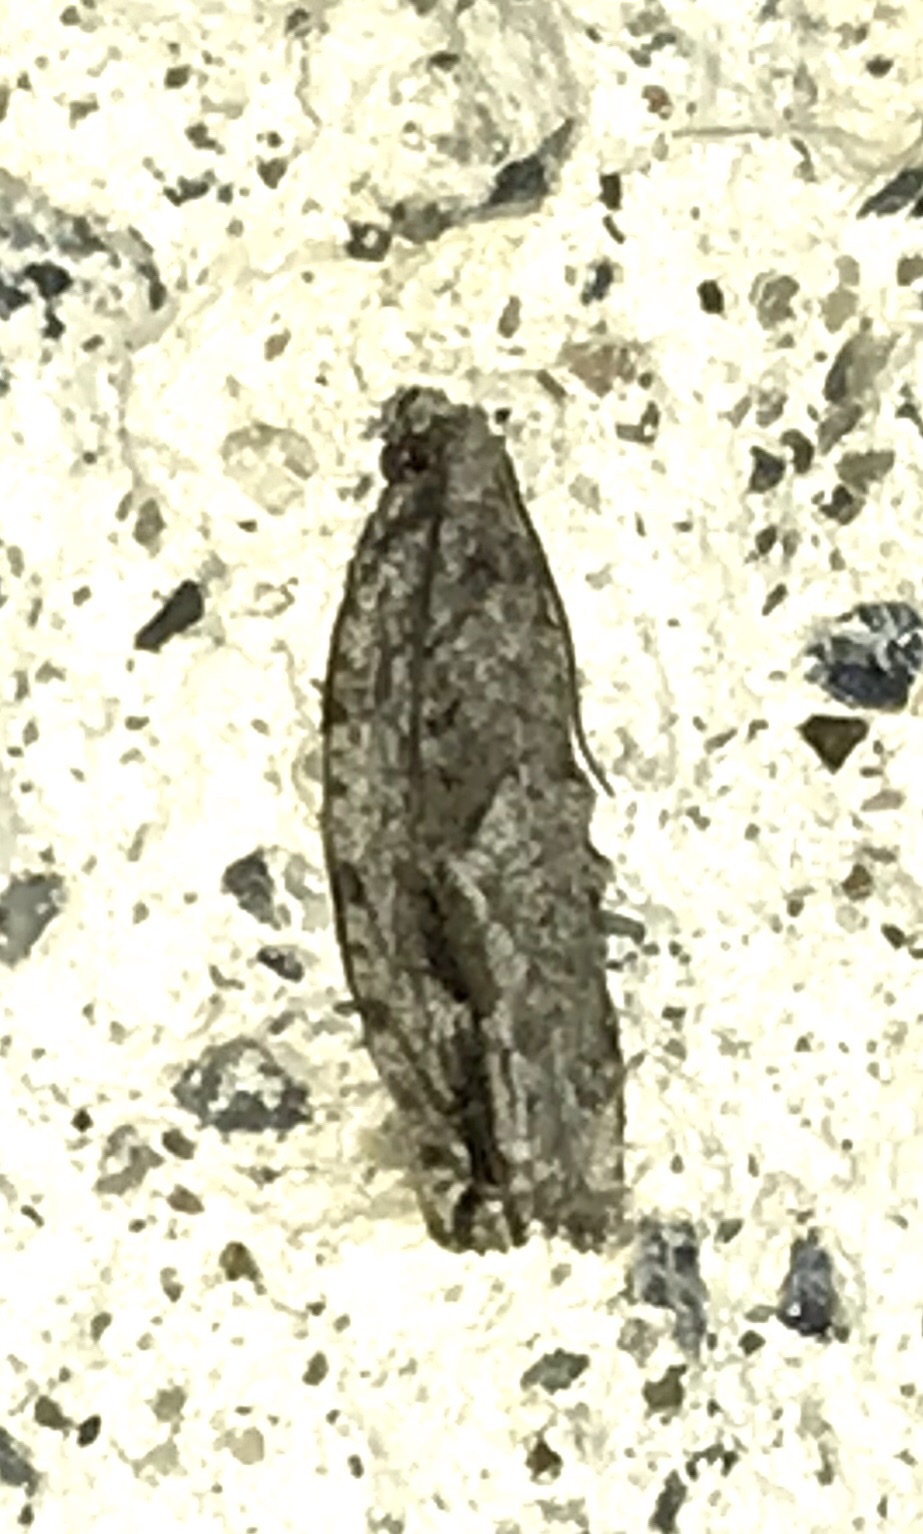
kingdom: Animalia
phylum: Arthropoda
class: Insecta
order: Lepidoptera
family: Tortricidae
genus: Gretchena
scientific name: Gretchena bolliana
